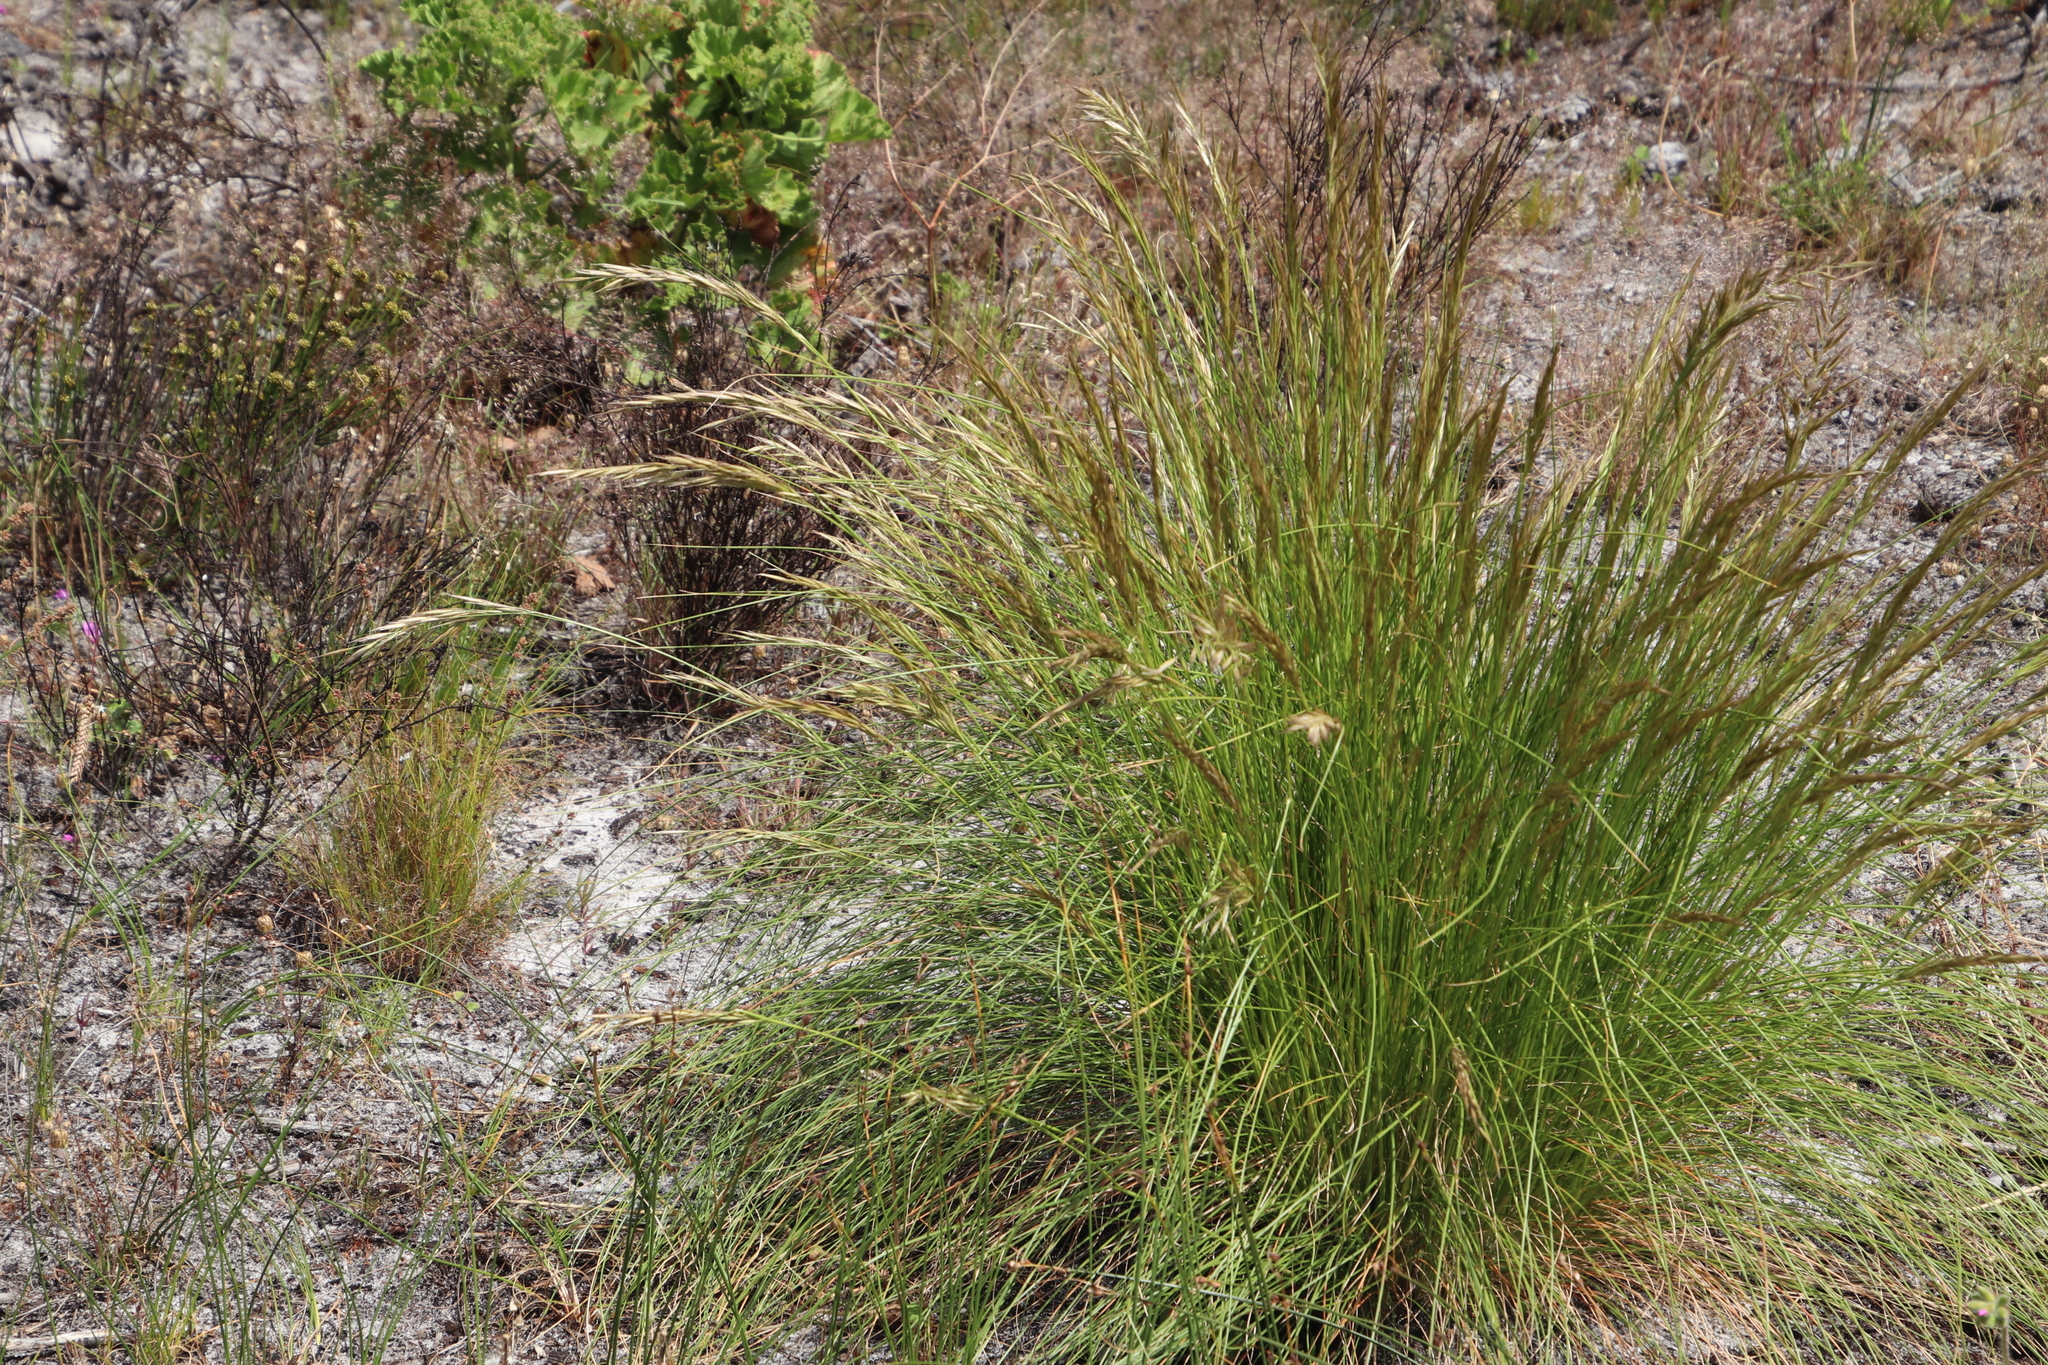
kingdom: Plantae
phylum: Tracheophyta
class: Liliopsida
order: Poales
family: Poaceae
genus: Tenaxia
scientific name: Tenaxia stricta
